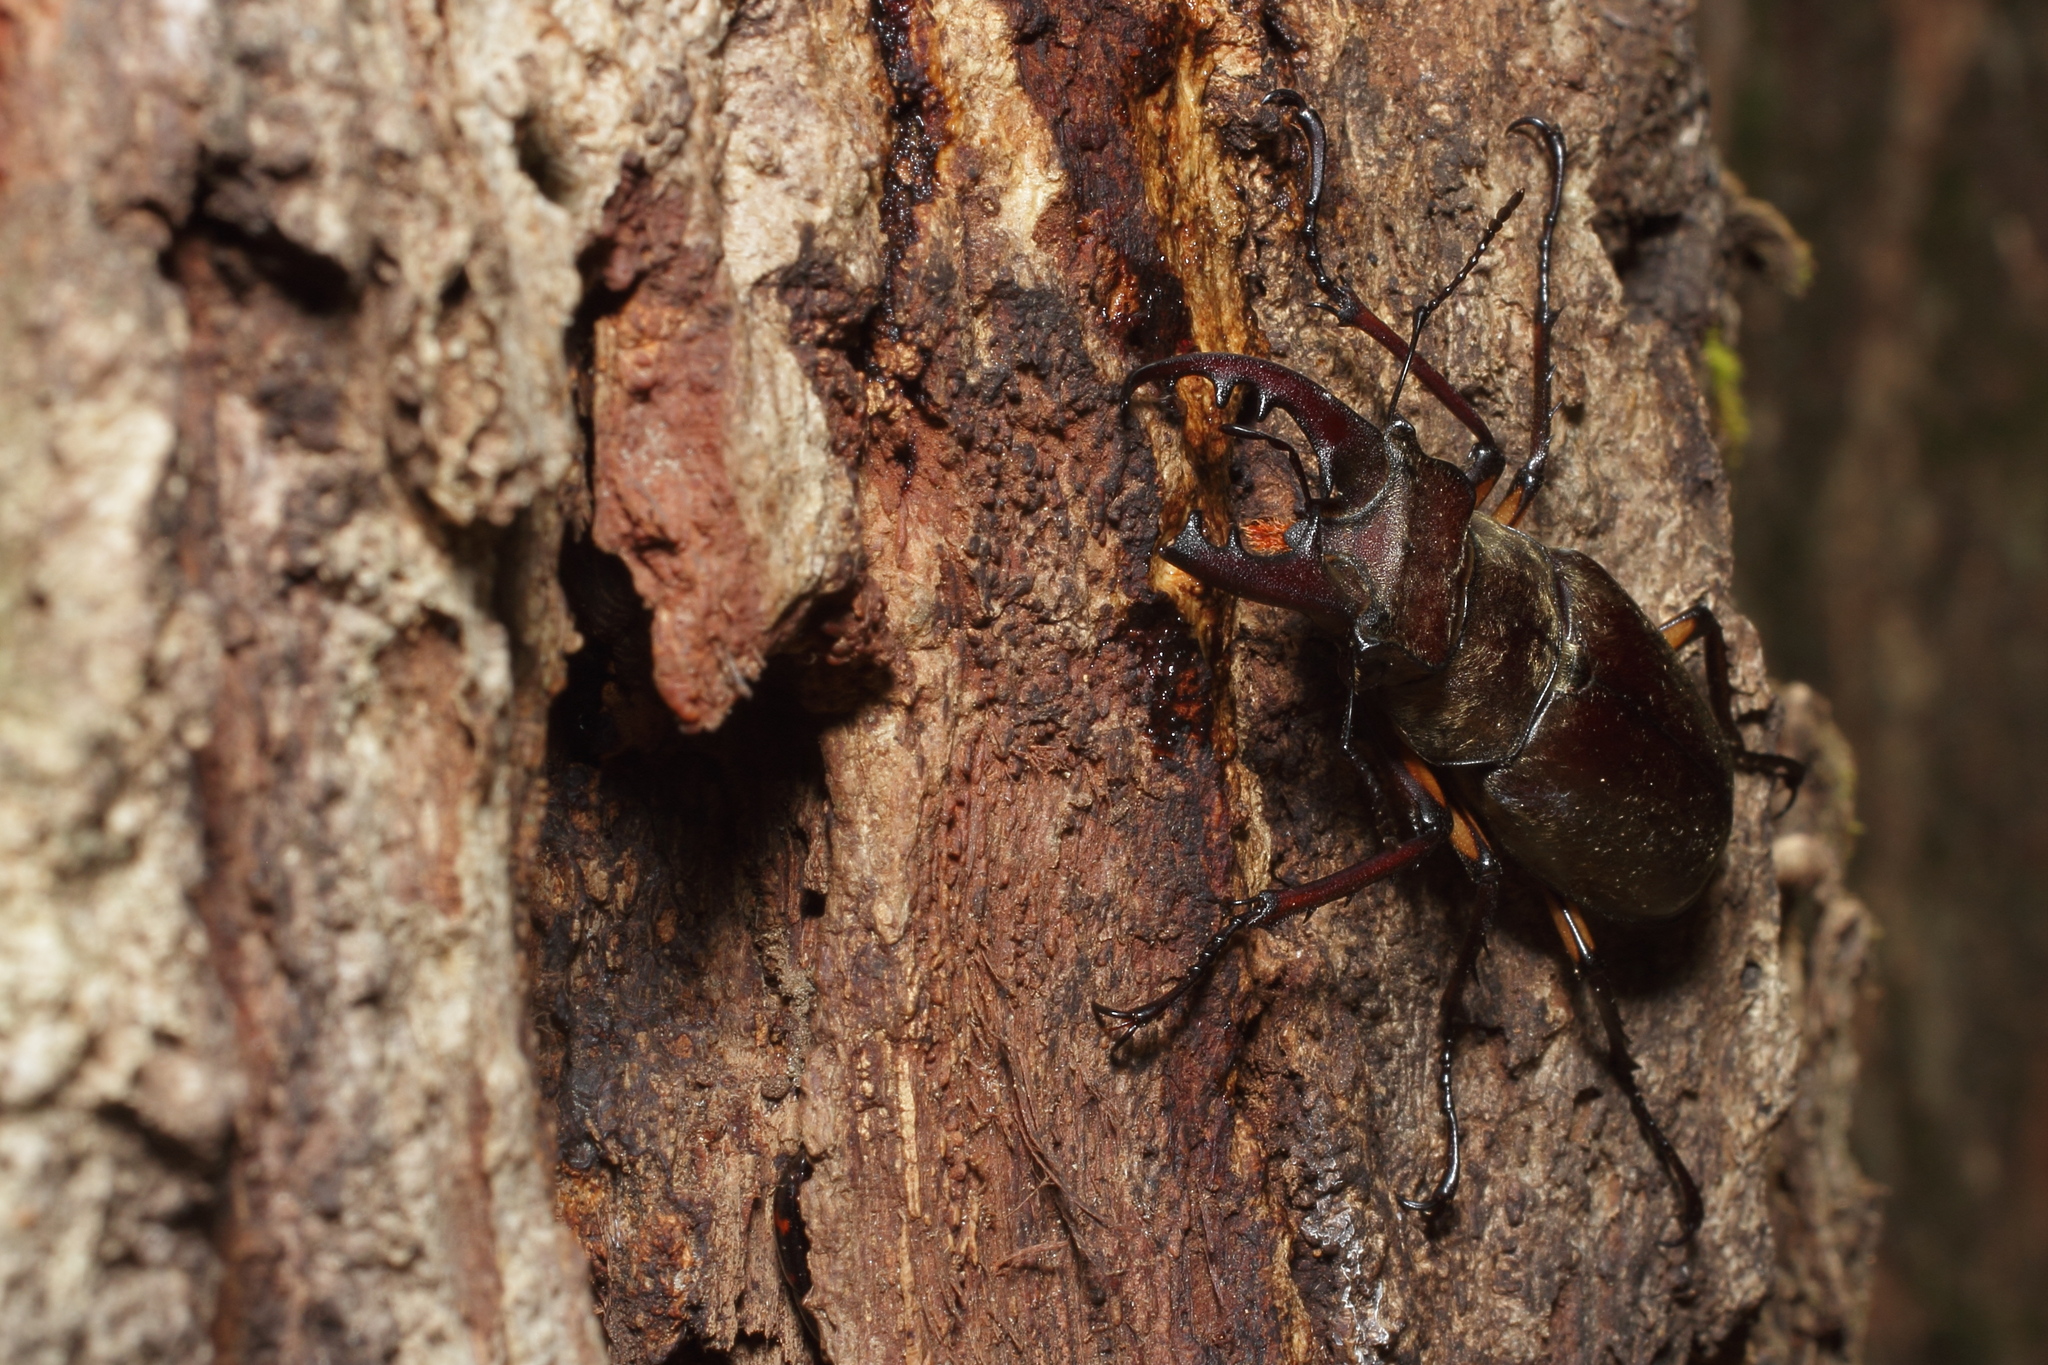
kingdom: Animalia
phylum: Arthropoda
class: Insecta
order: Coleoptera
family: Lucanidae
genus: Lucanus
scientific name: Lucanus maculifemoratus
